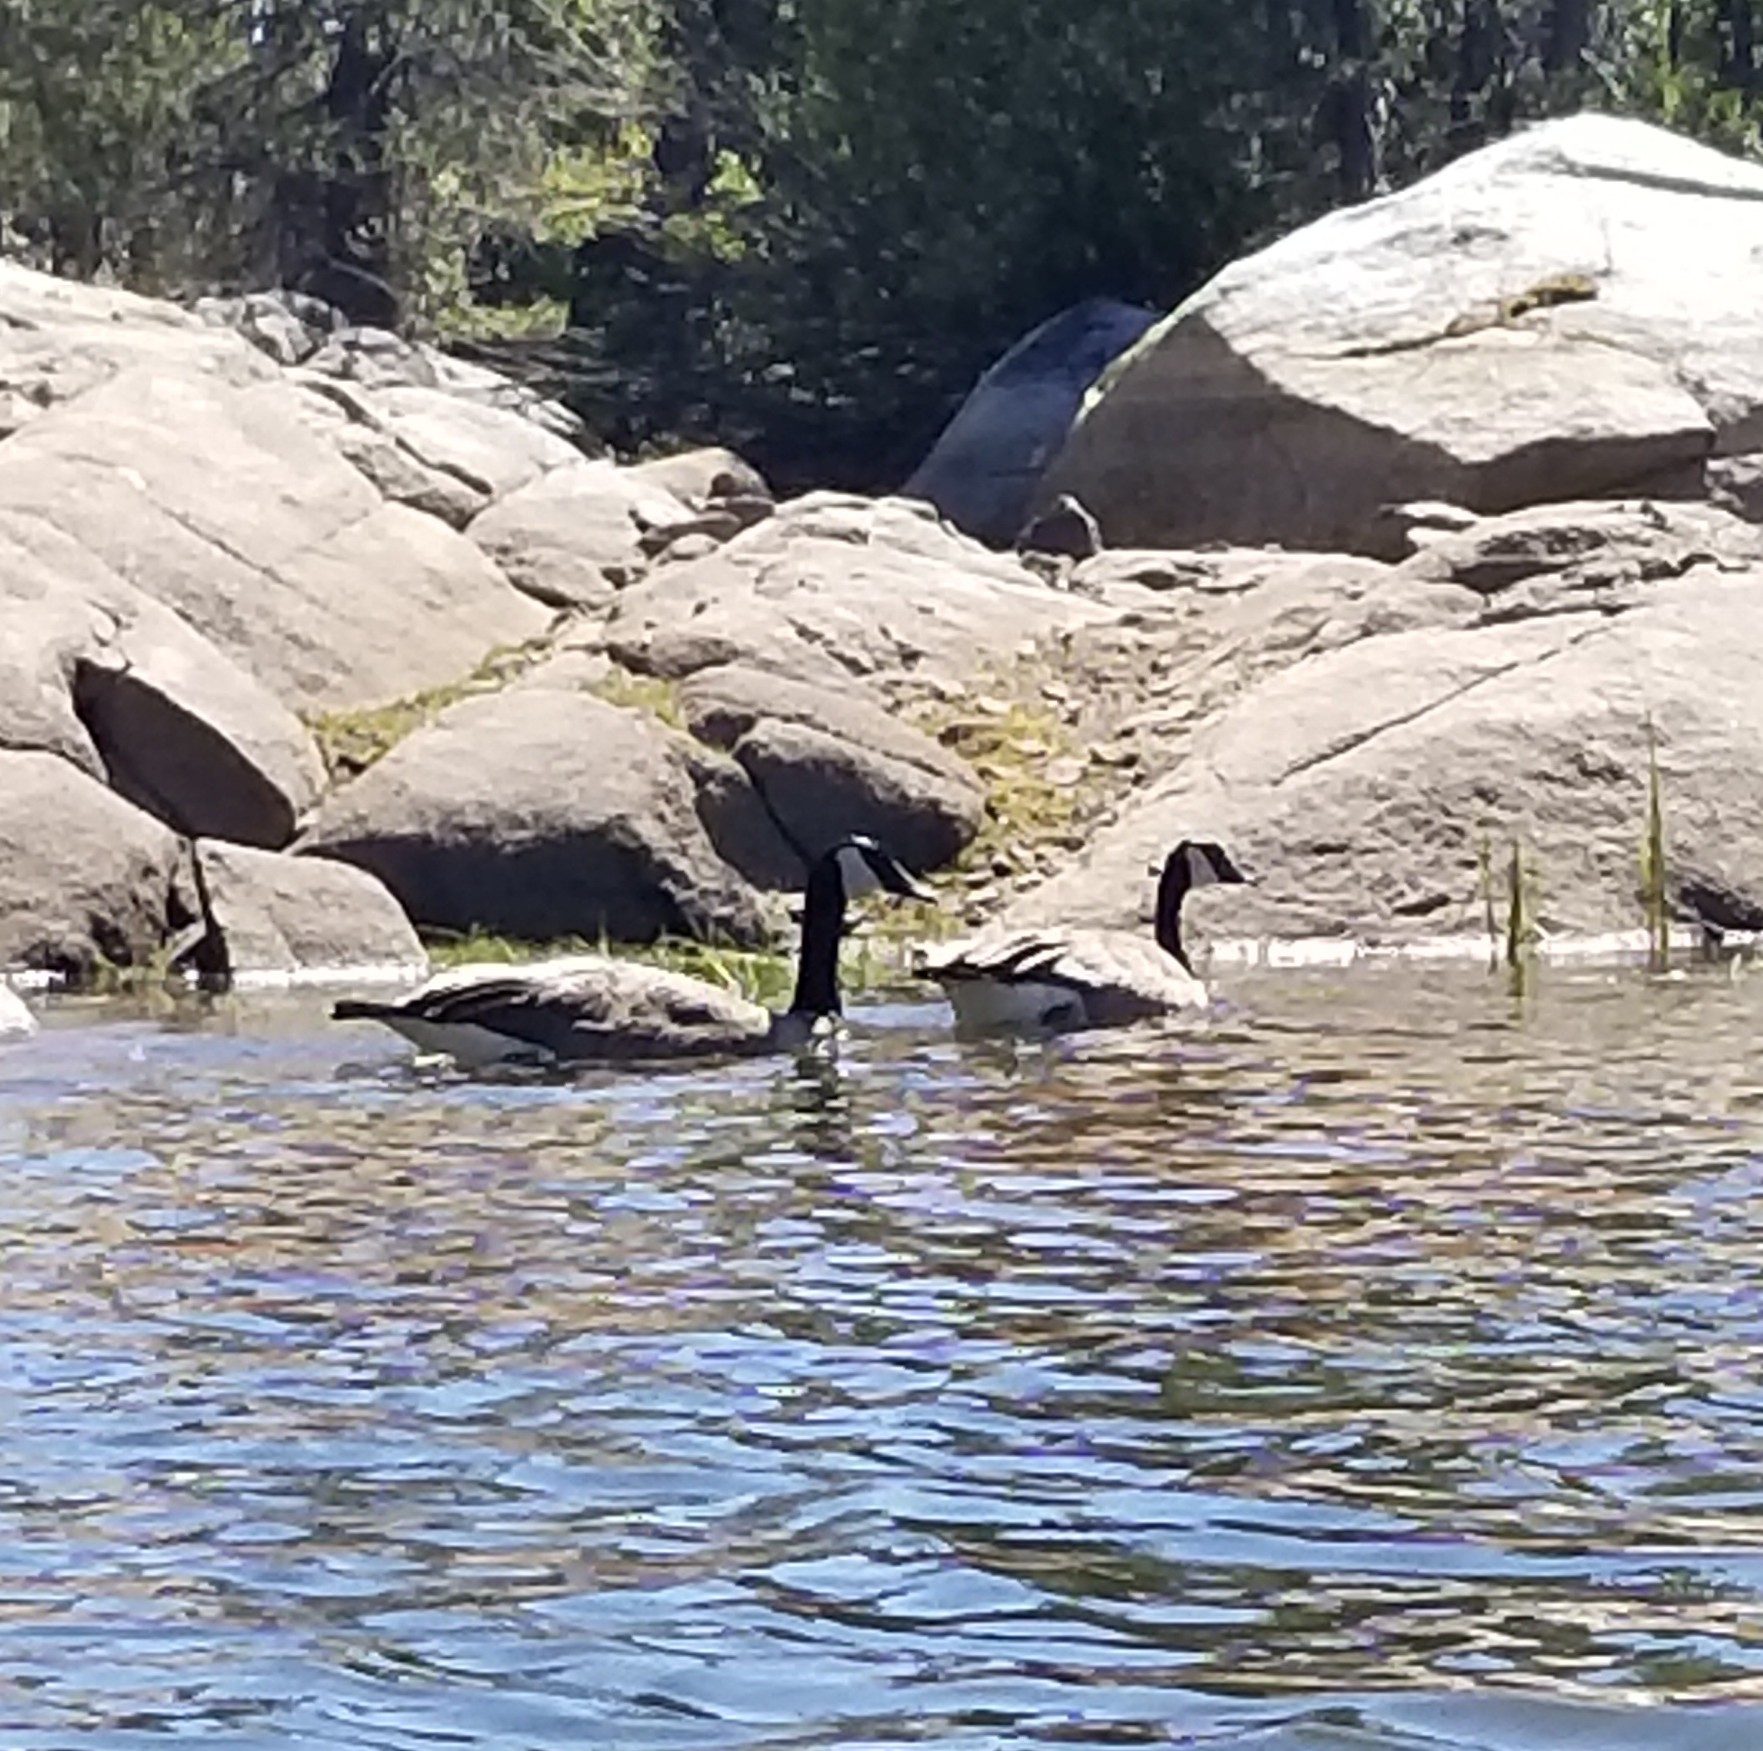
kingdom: Animalia
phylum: Chordata
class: Aves
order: Anseriformes
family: Anatidae
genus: Branta
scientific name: Branta canadensis
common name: Canada goose
